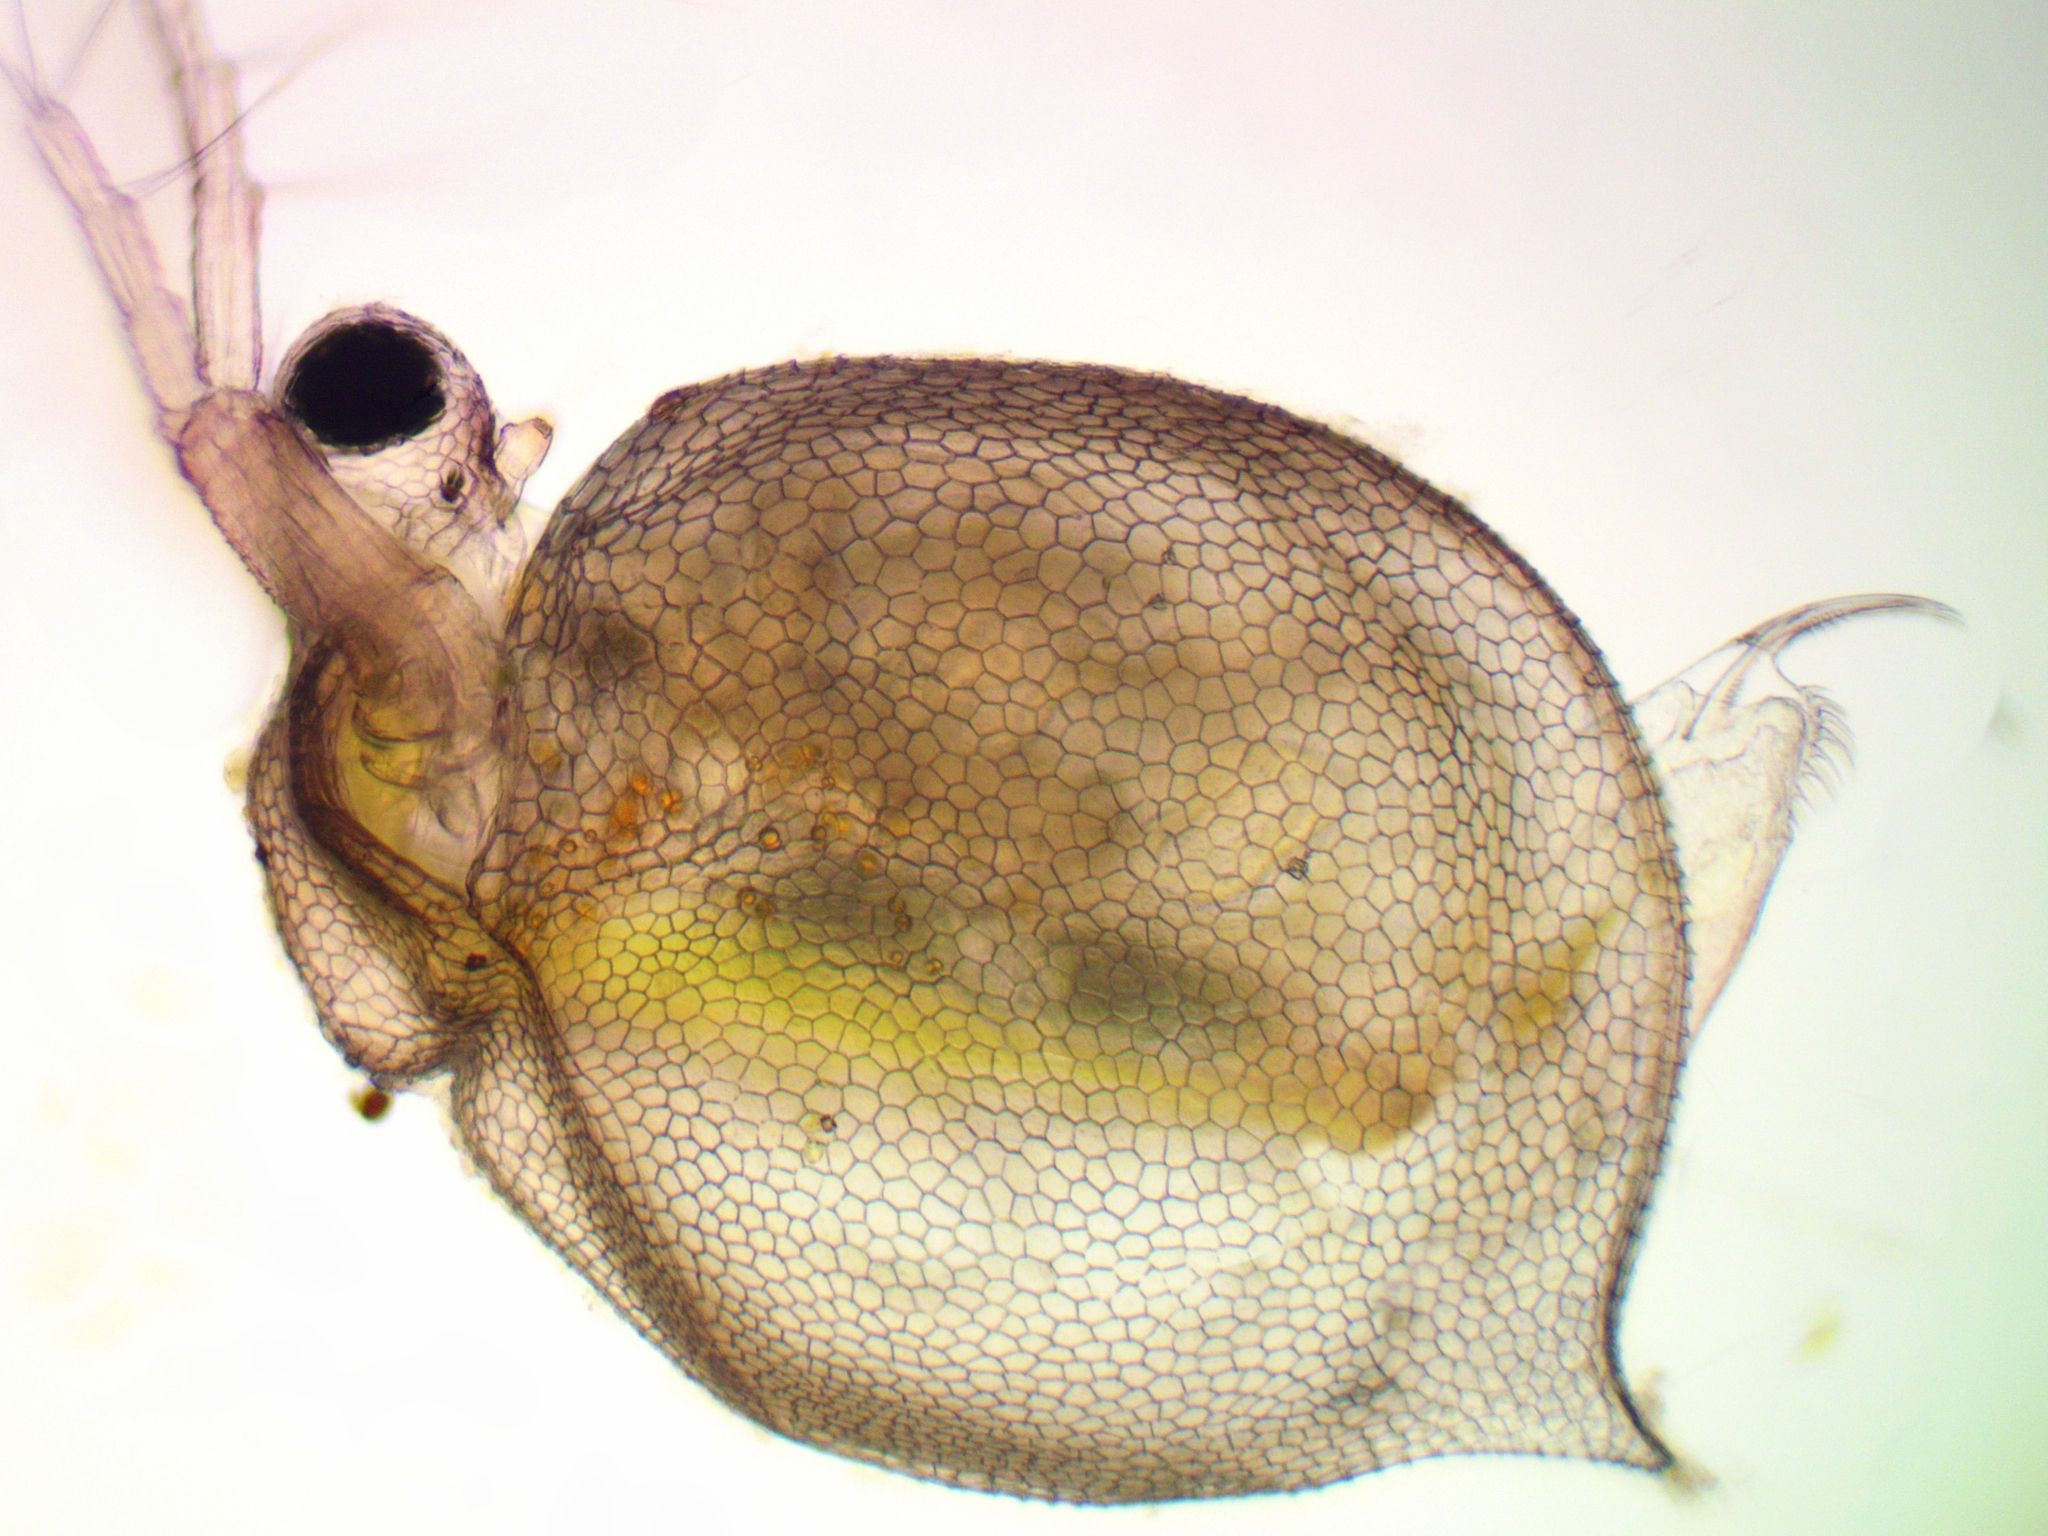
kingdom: Animalia
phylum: Arthropoda
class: Branchiopoda
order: Diplostraca
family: Daphniidae
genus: Ceriodaphnia
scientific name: Ceriodaphnia reticulata
